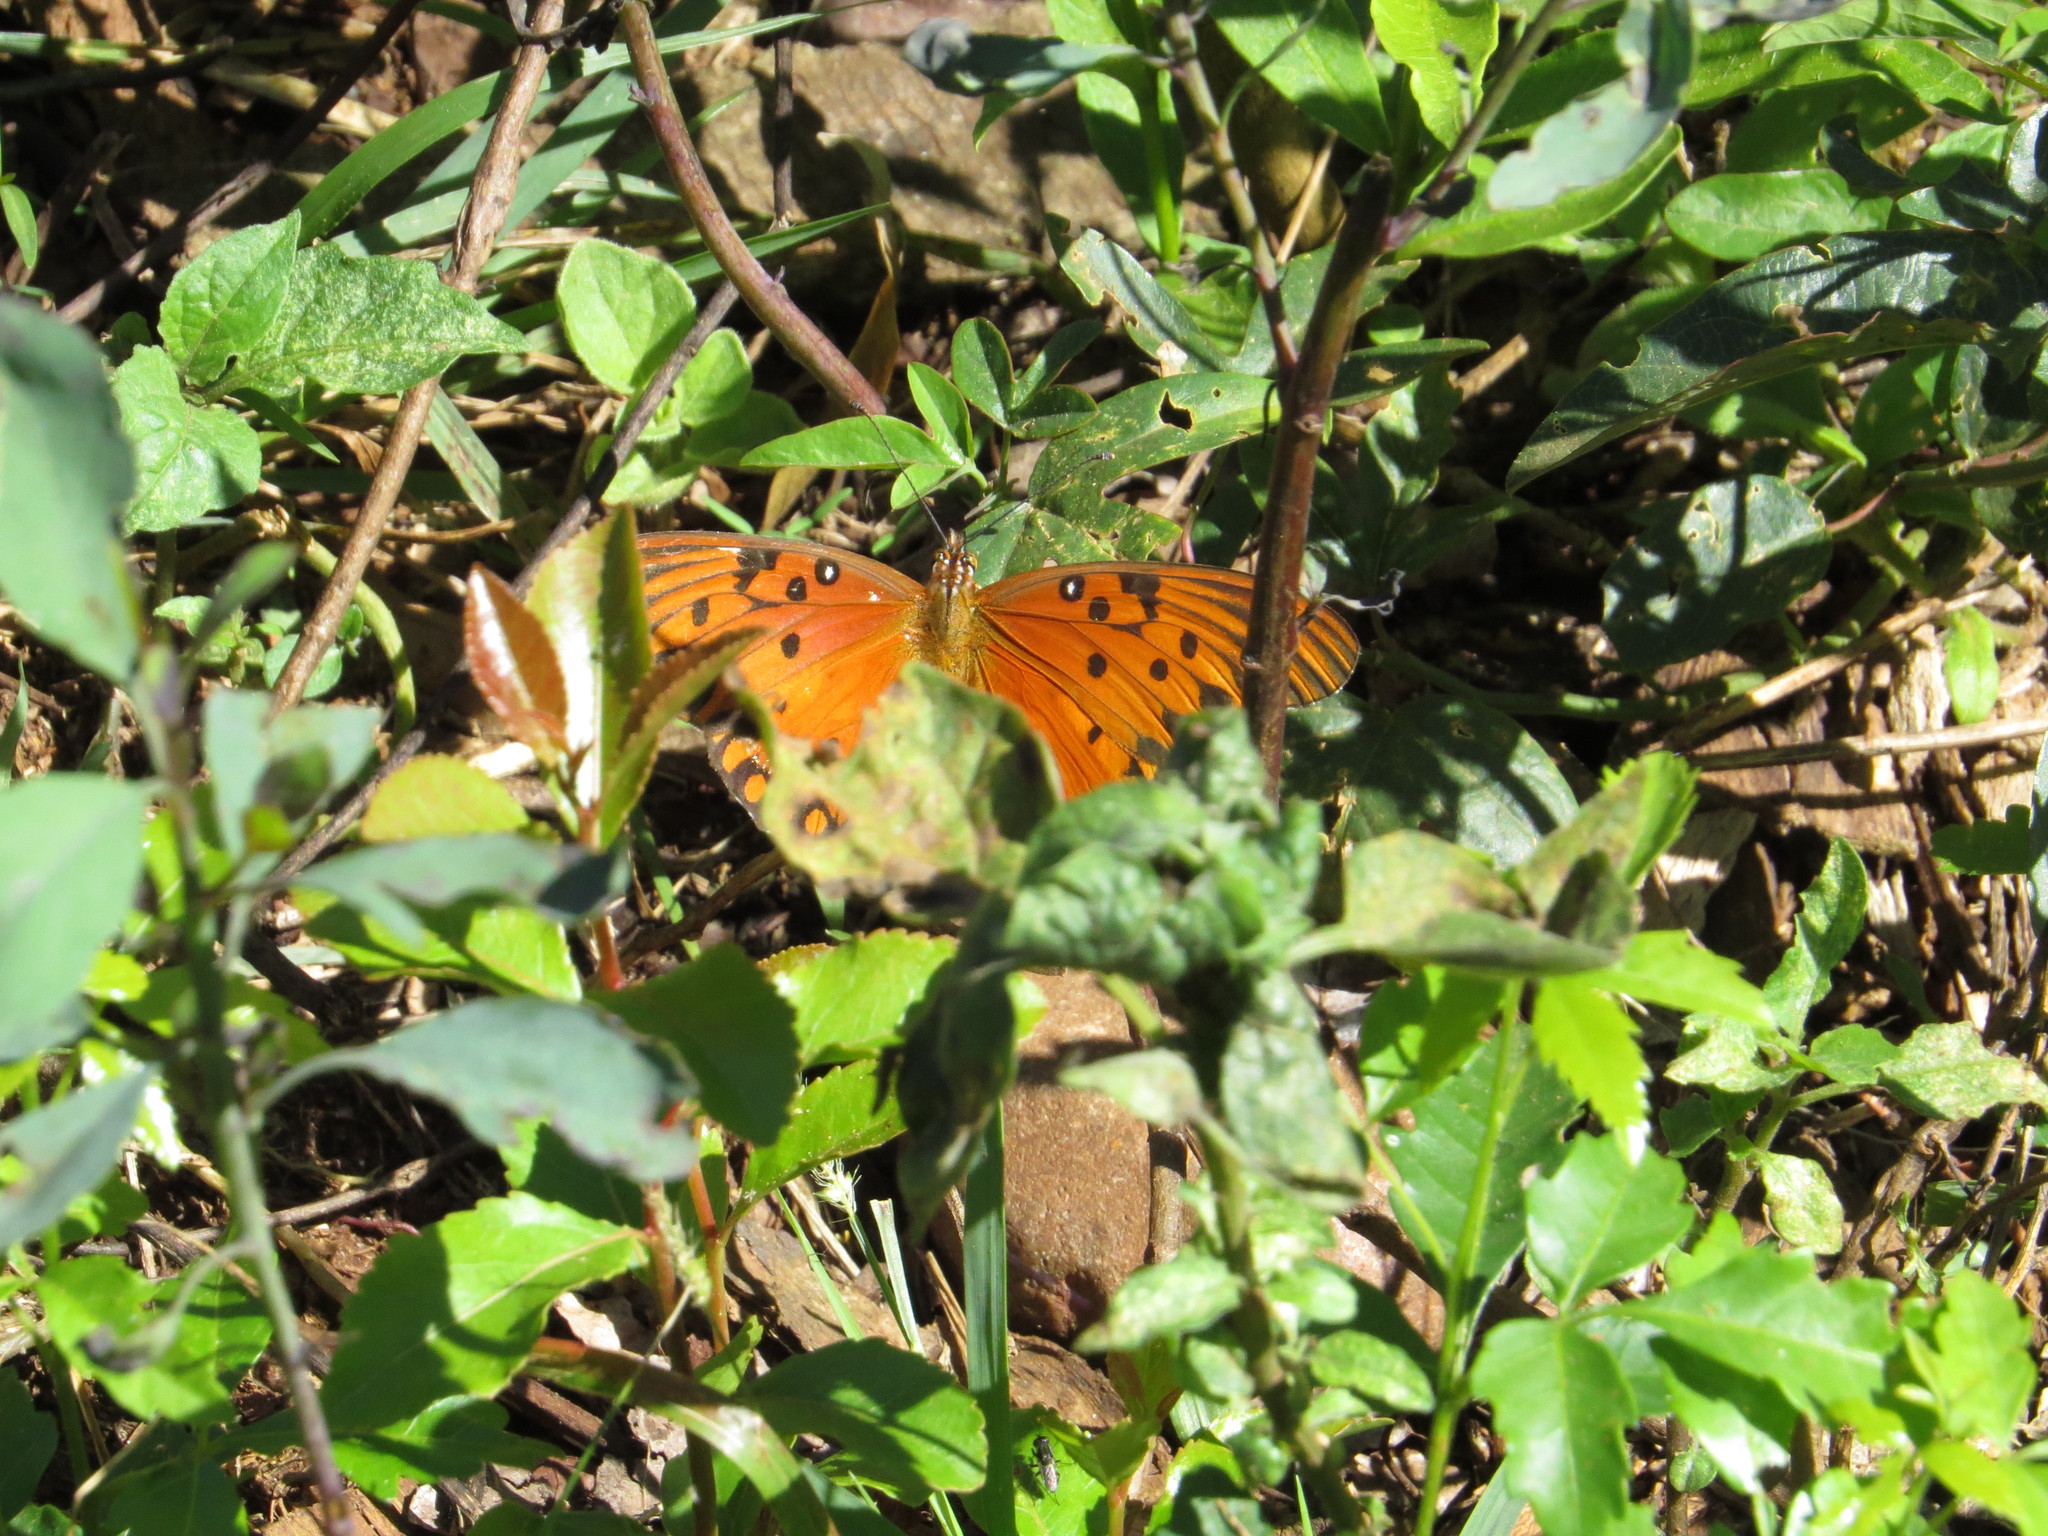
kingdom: Animalia
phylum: Arthropoda
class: Insecta
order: Lepidoptera
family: Nymphalidae
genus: Dione
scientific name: Dione vanillae
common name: Gulf fritillary
